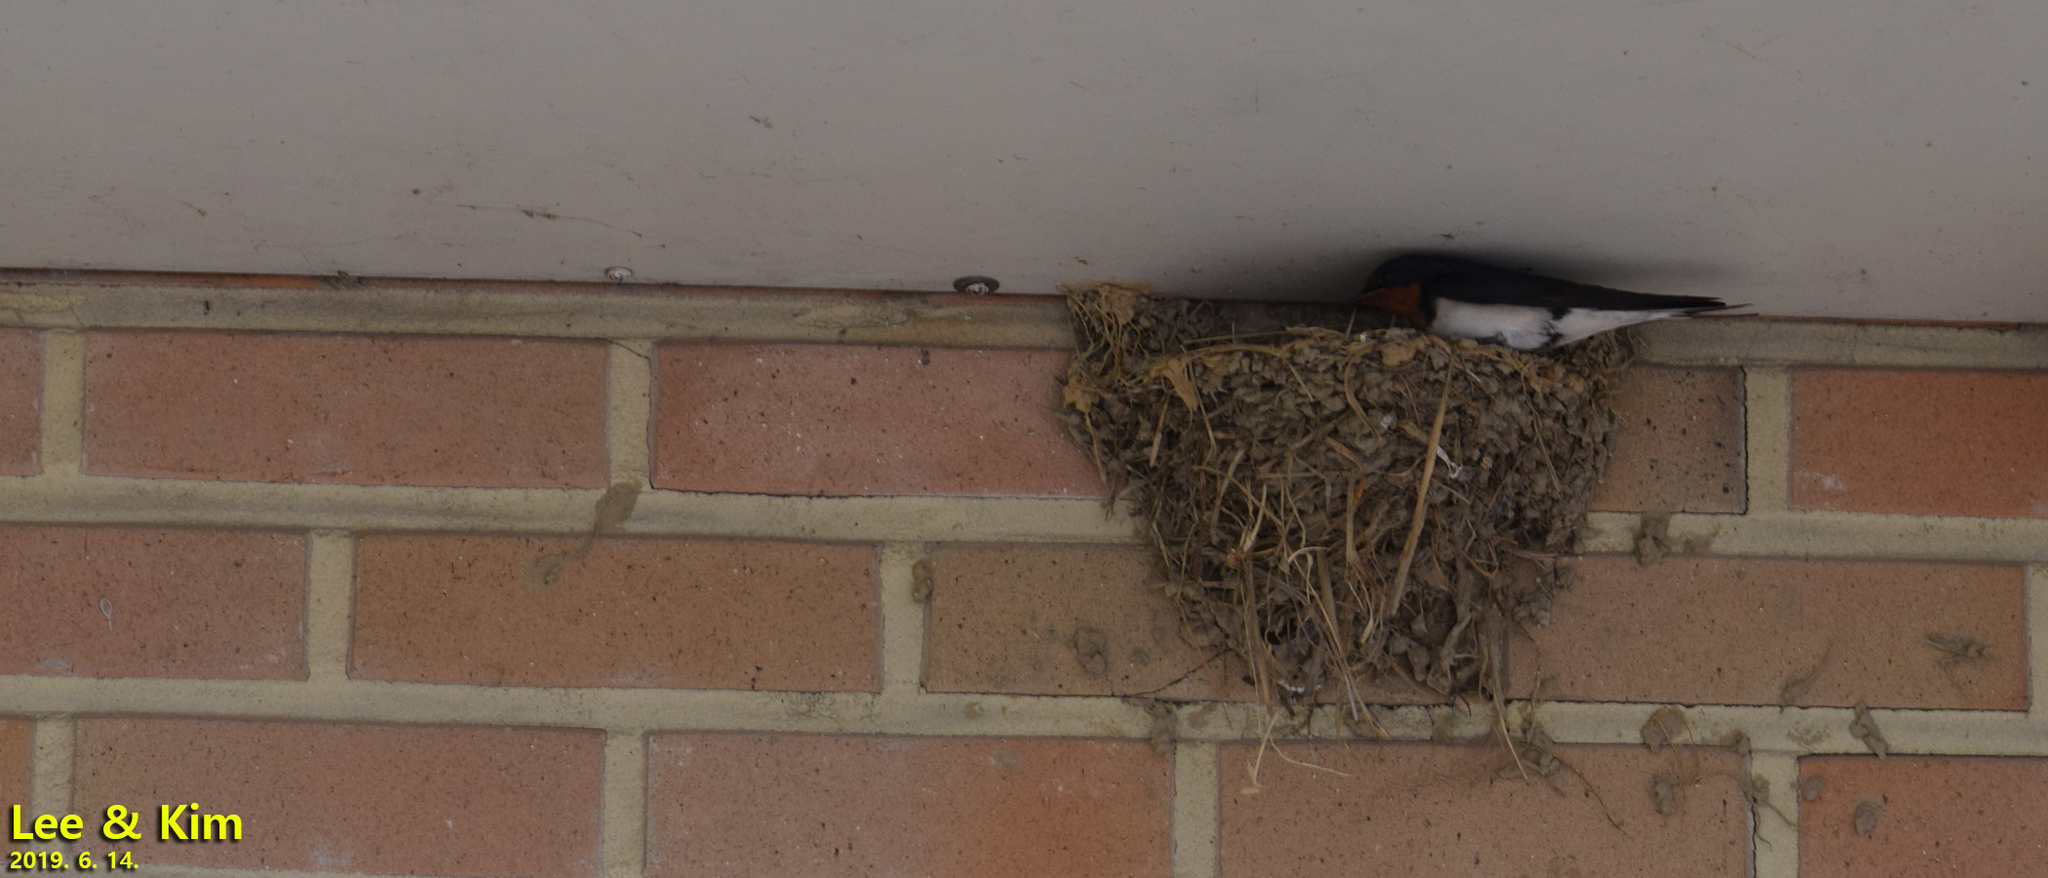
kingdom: Animalia
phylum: Chordata
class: Aves
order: Passeriformes
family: Hirundinidae
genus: Hirundo
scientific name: Hirundo rustica
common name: Barn swallow
